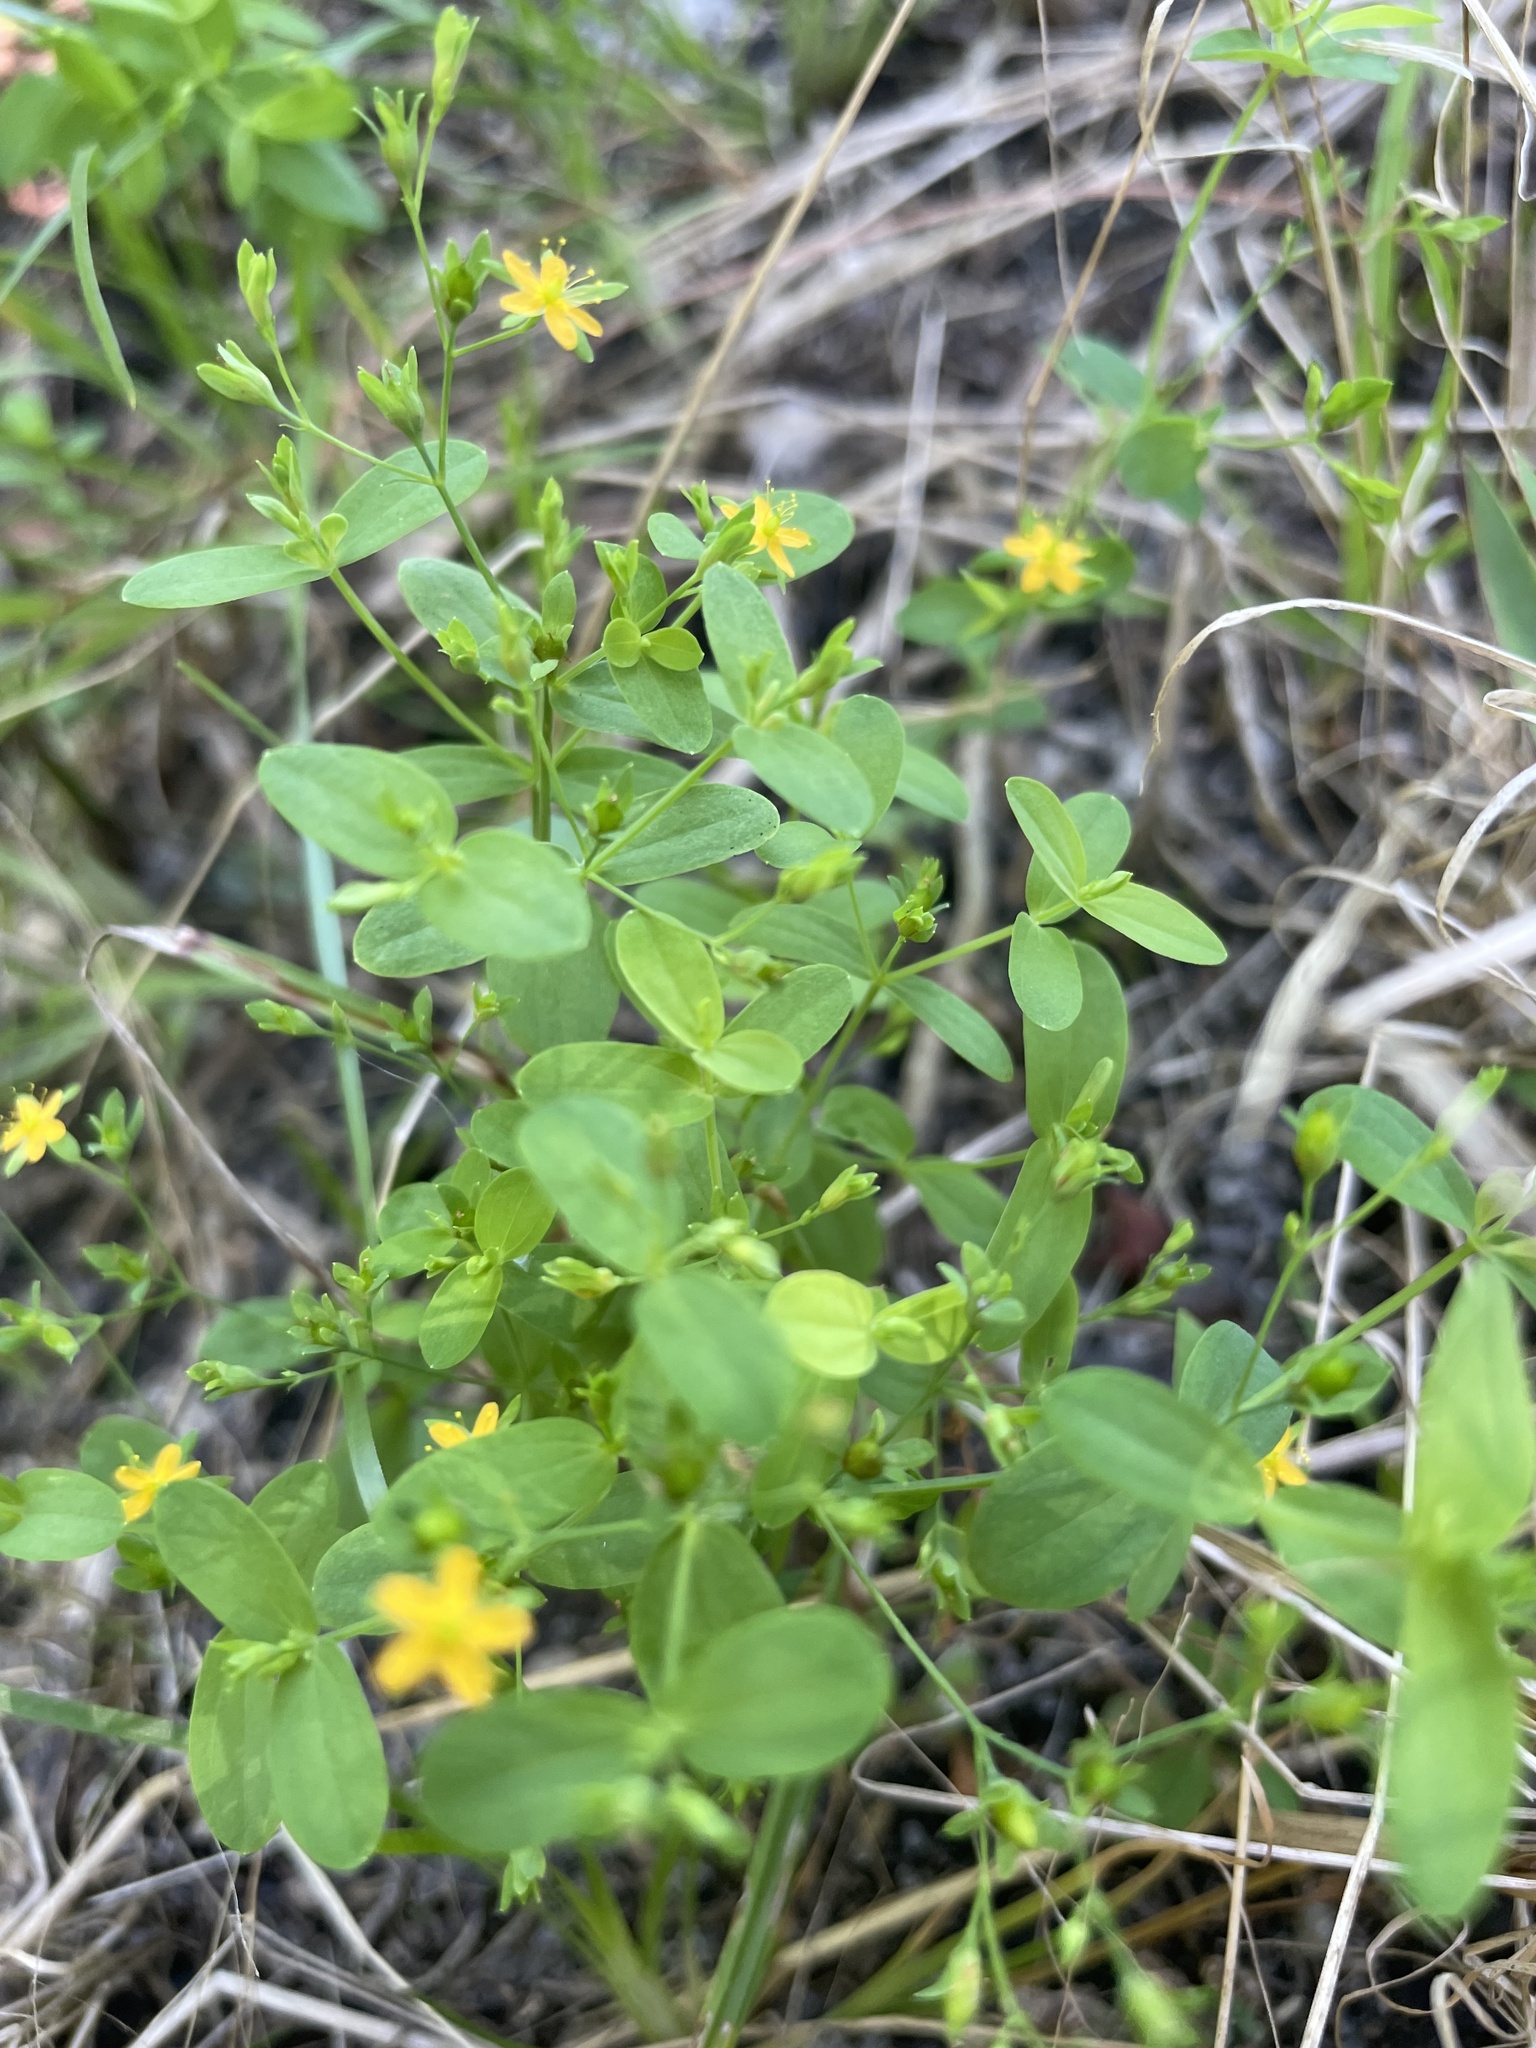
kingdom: Plantae
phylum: Tracheophyta
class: Magnoliopsida
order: Malpighiales
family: Hypericaceae
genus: Hypericum
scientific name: Hypericum mutilum
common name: Dwarf st. john's-wort
